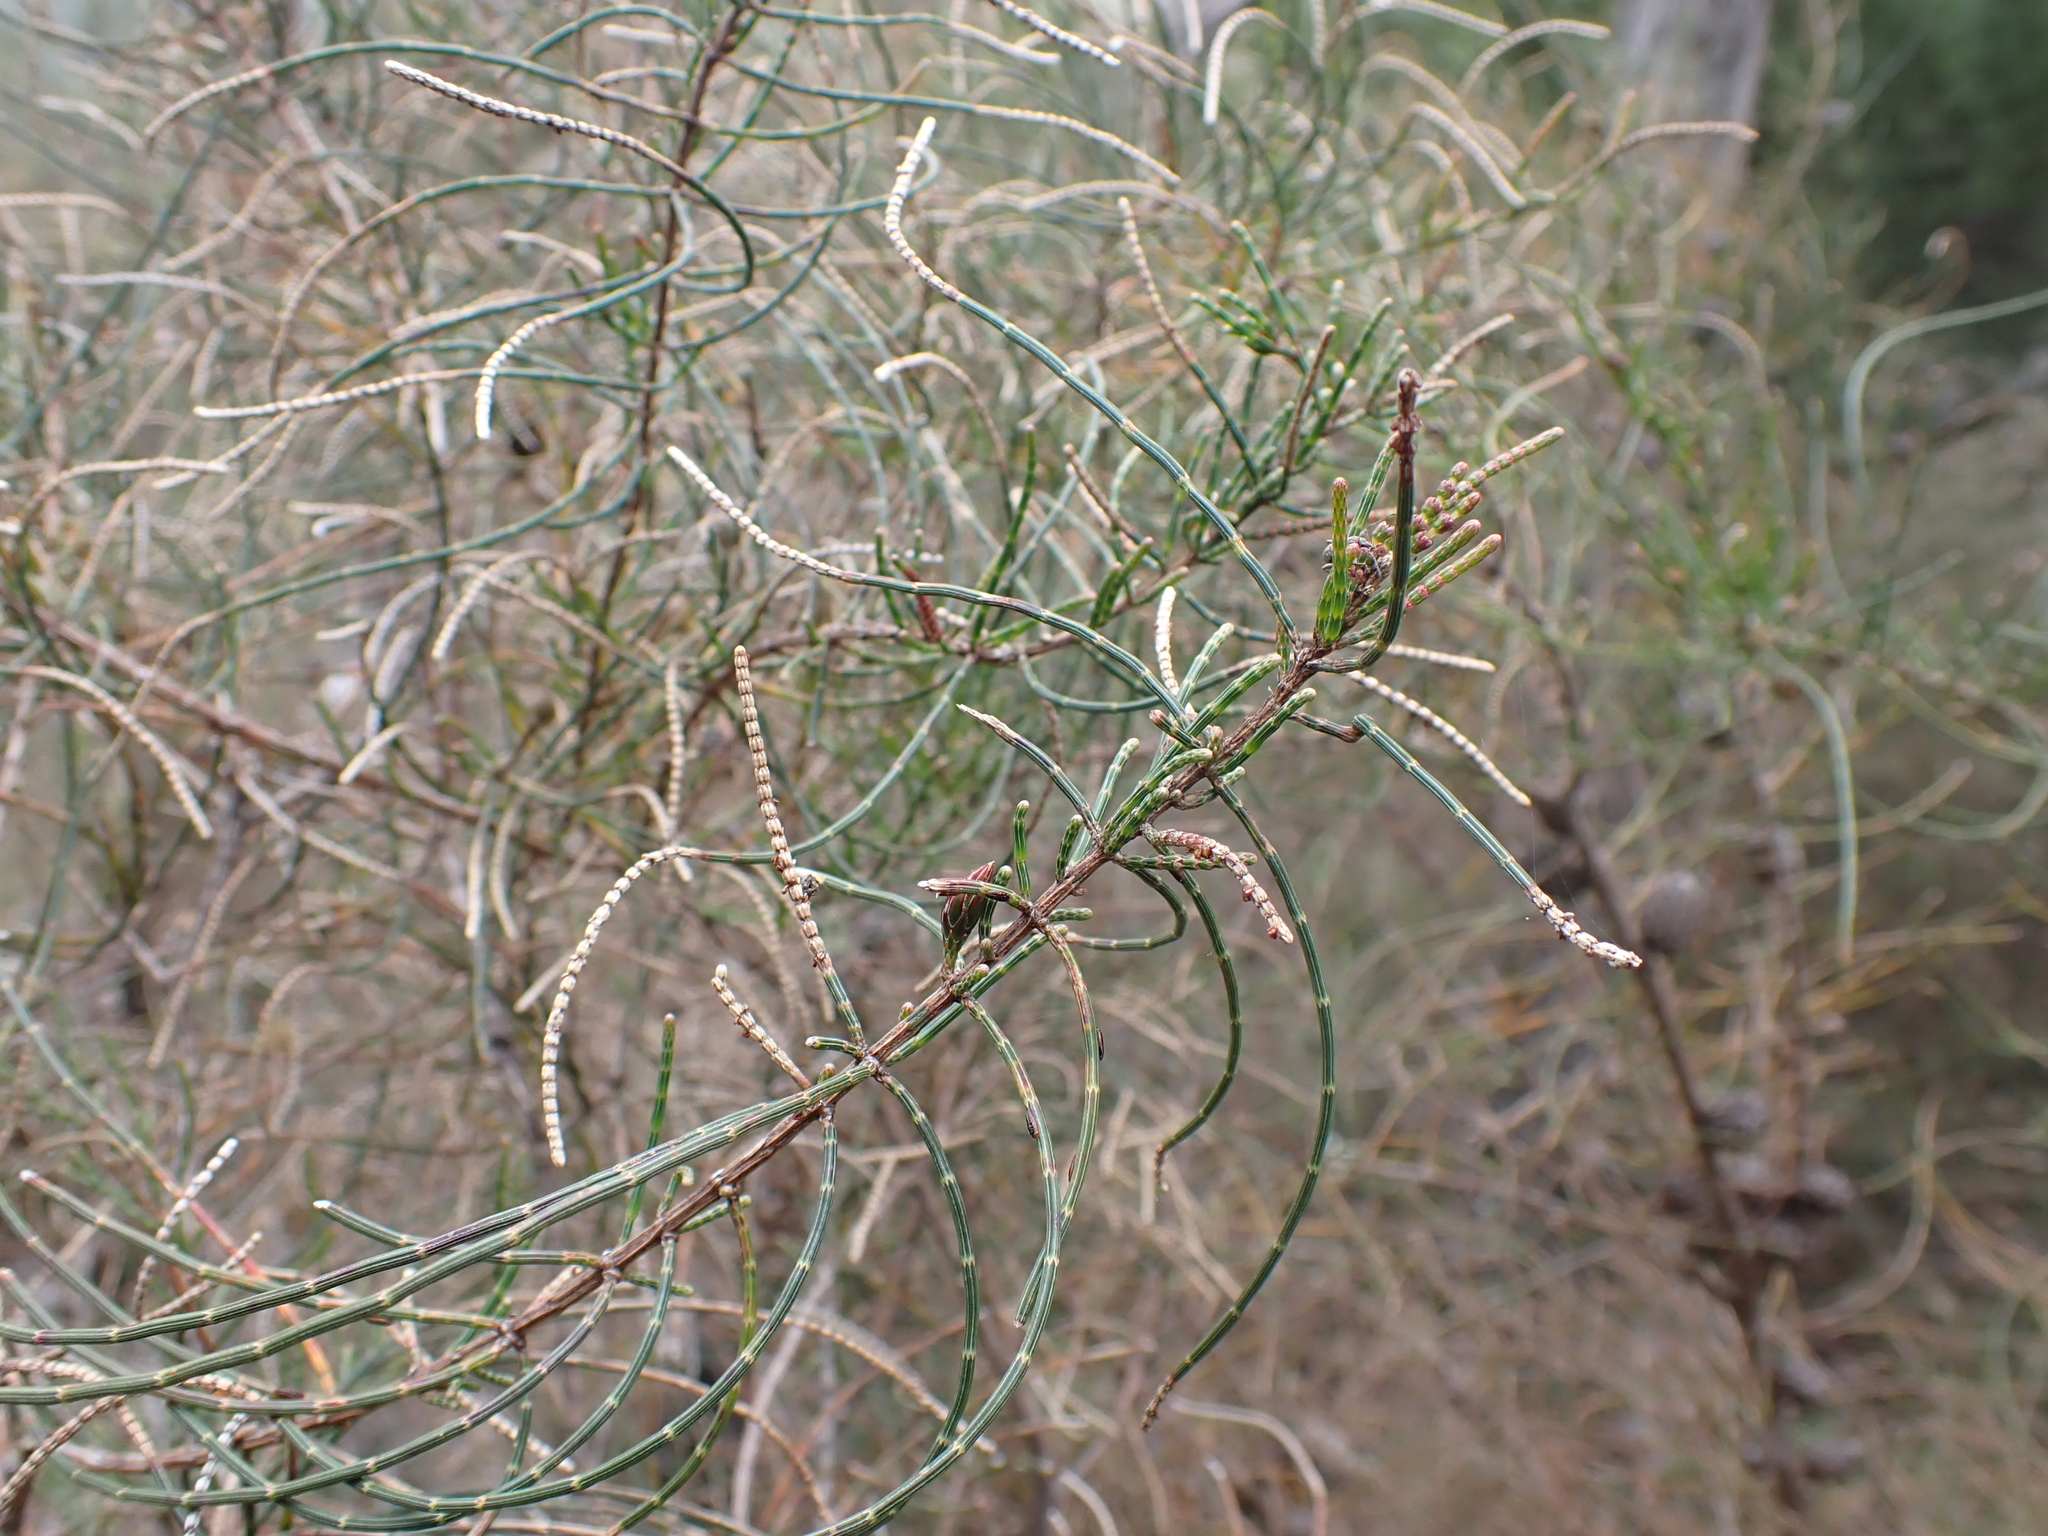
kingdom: Plantae
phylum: Tracheophyta
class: Magnoliopsida
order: Fagales
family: Casuarinaceae
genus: Allocasuarina
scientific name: Allocasuarina muelleriana
